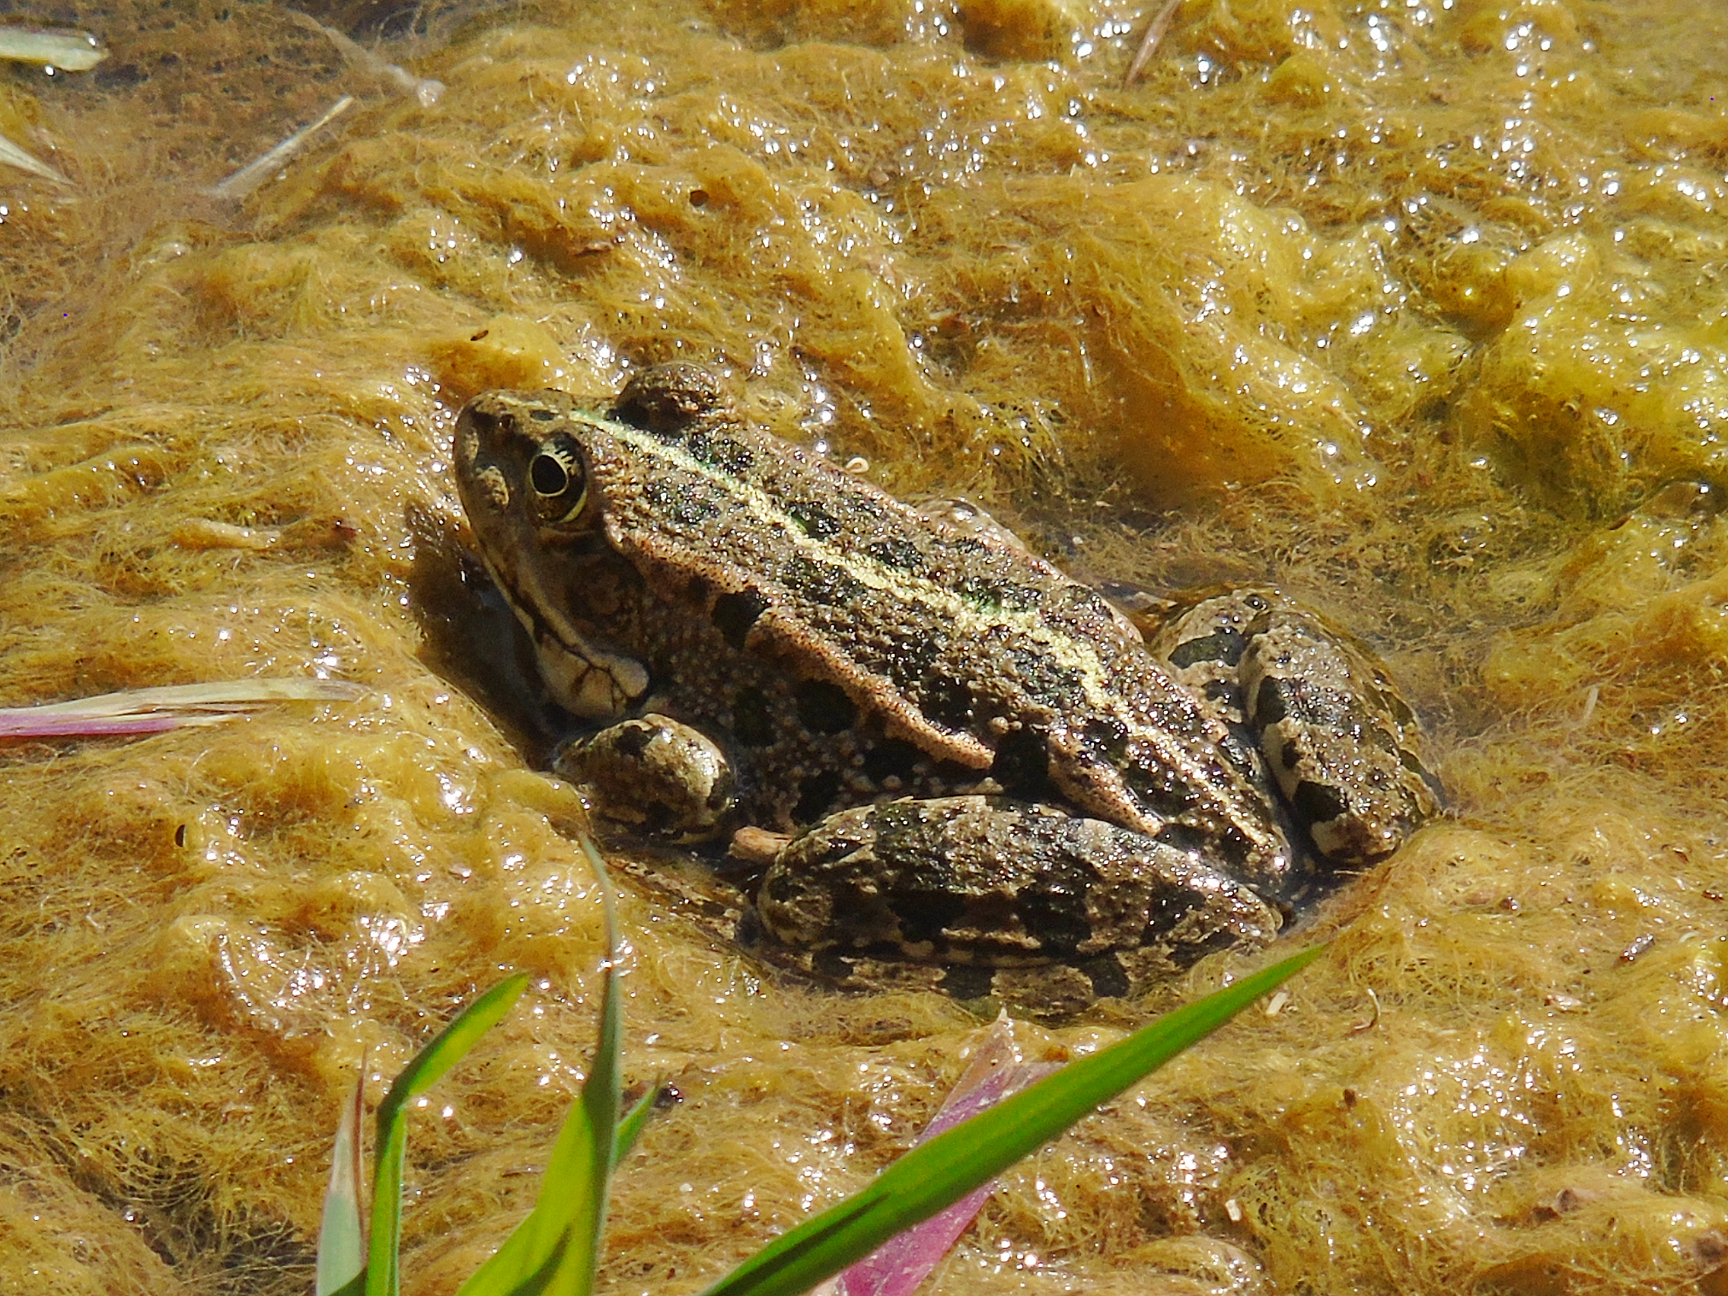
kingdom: Animalia
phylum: Chordata
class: Amphibia
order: Anura
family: Ranidae
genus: Pelophylax
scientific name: Pelophylax ridibundus
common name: Marsh frog
